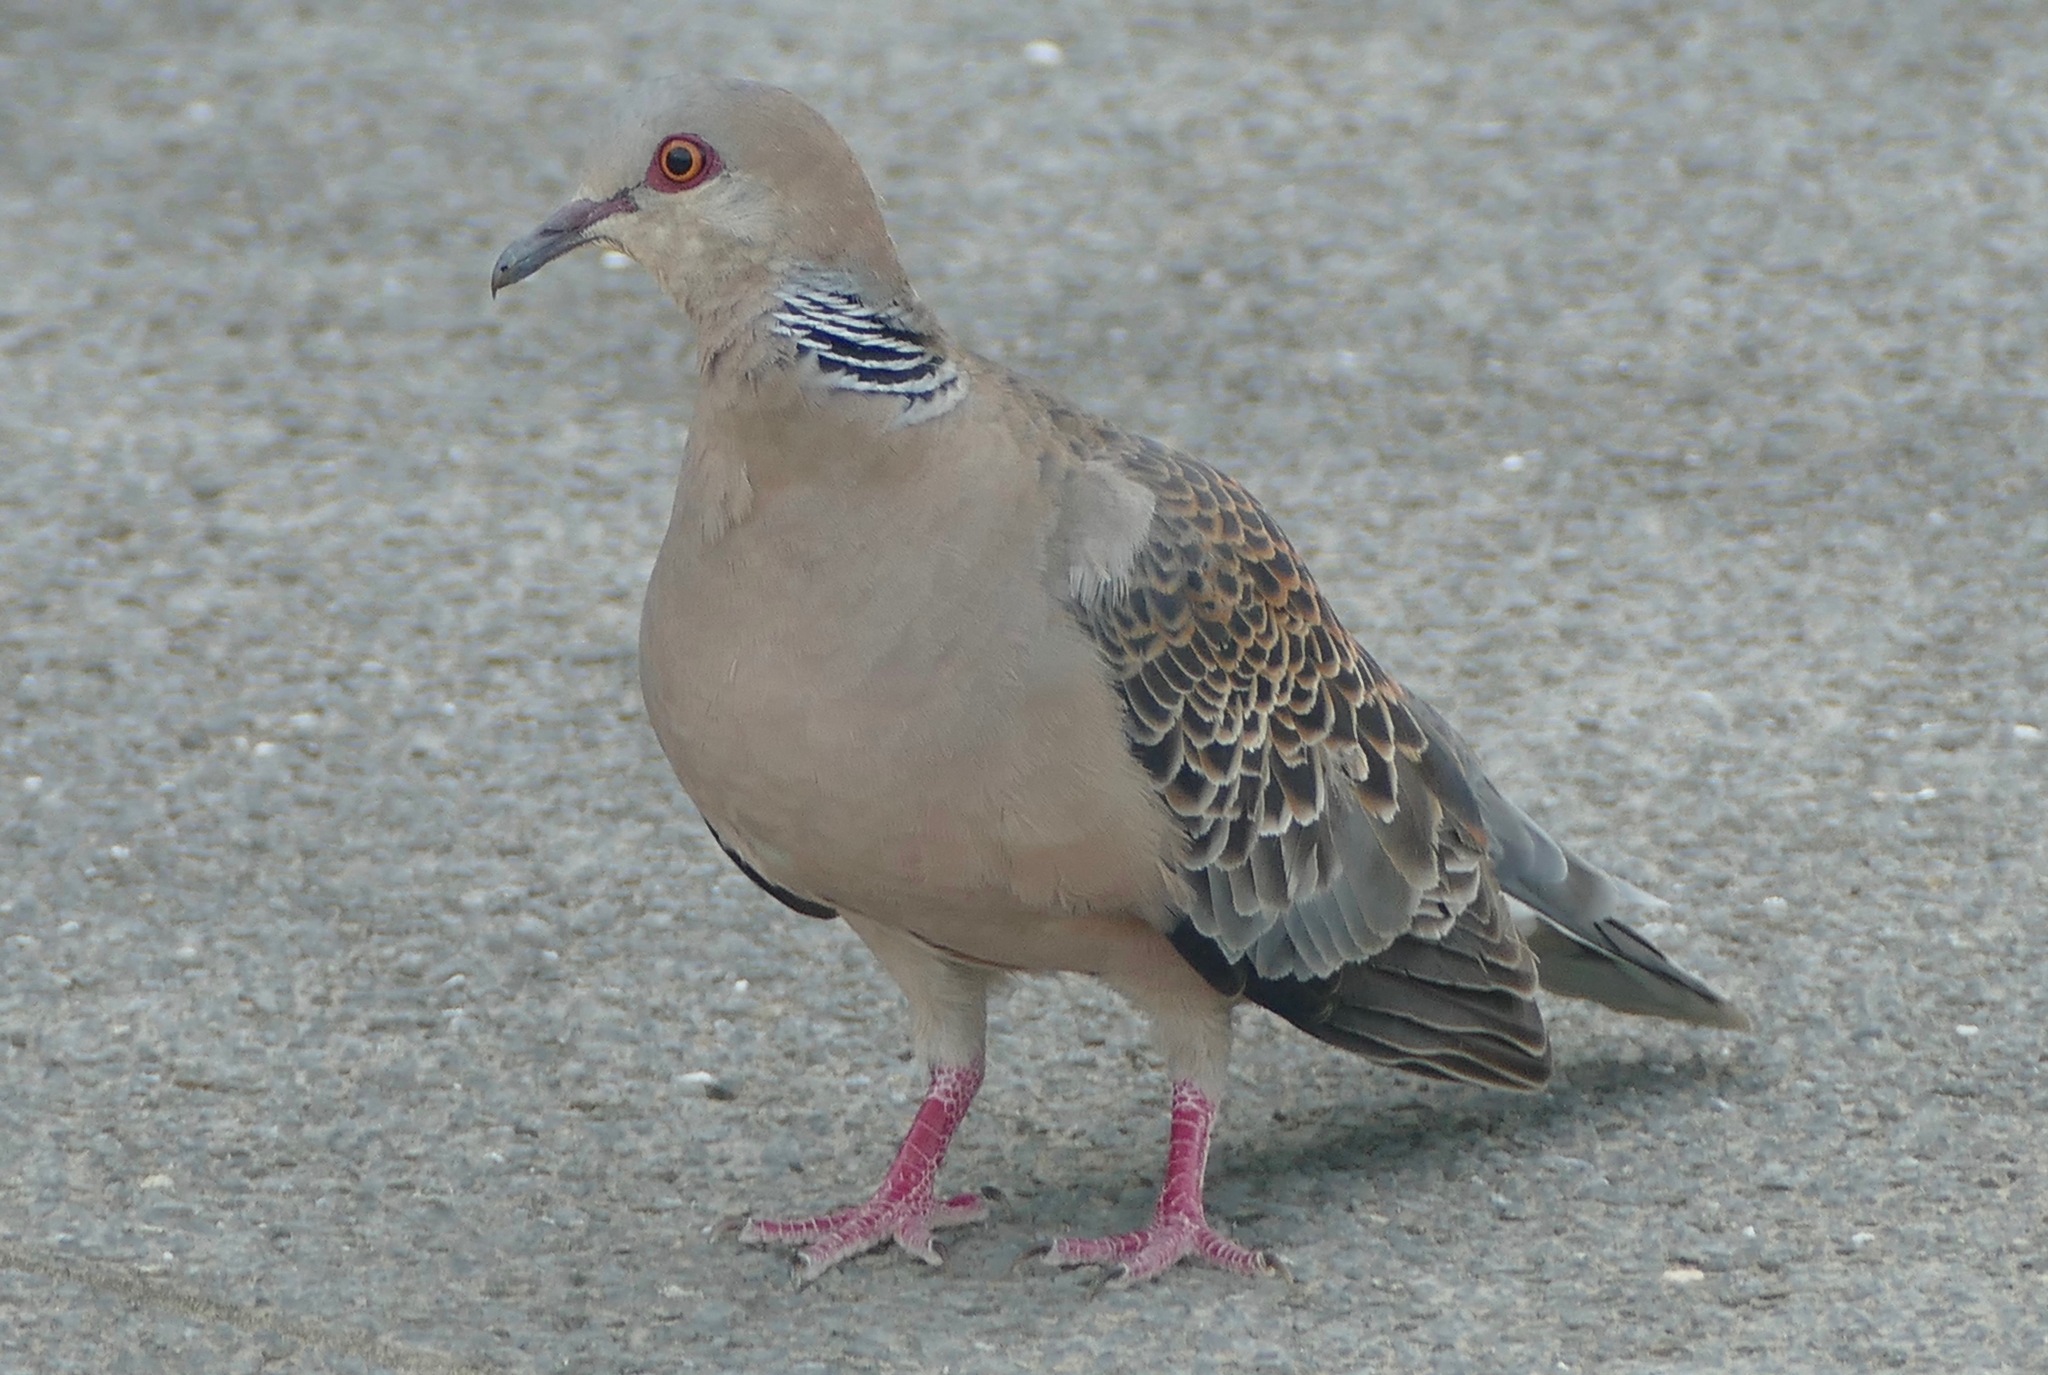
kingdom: Animalia
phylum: Chordata
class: Aves
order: Columbiformes
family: Columbidae
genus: Streptopelia
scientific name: Streptopelia orientalis
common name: Oriental turtle dove
